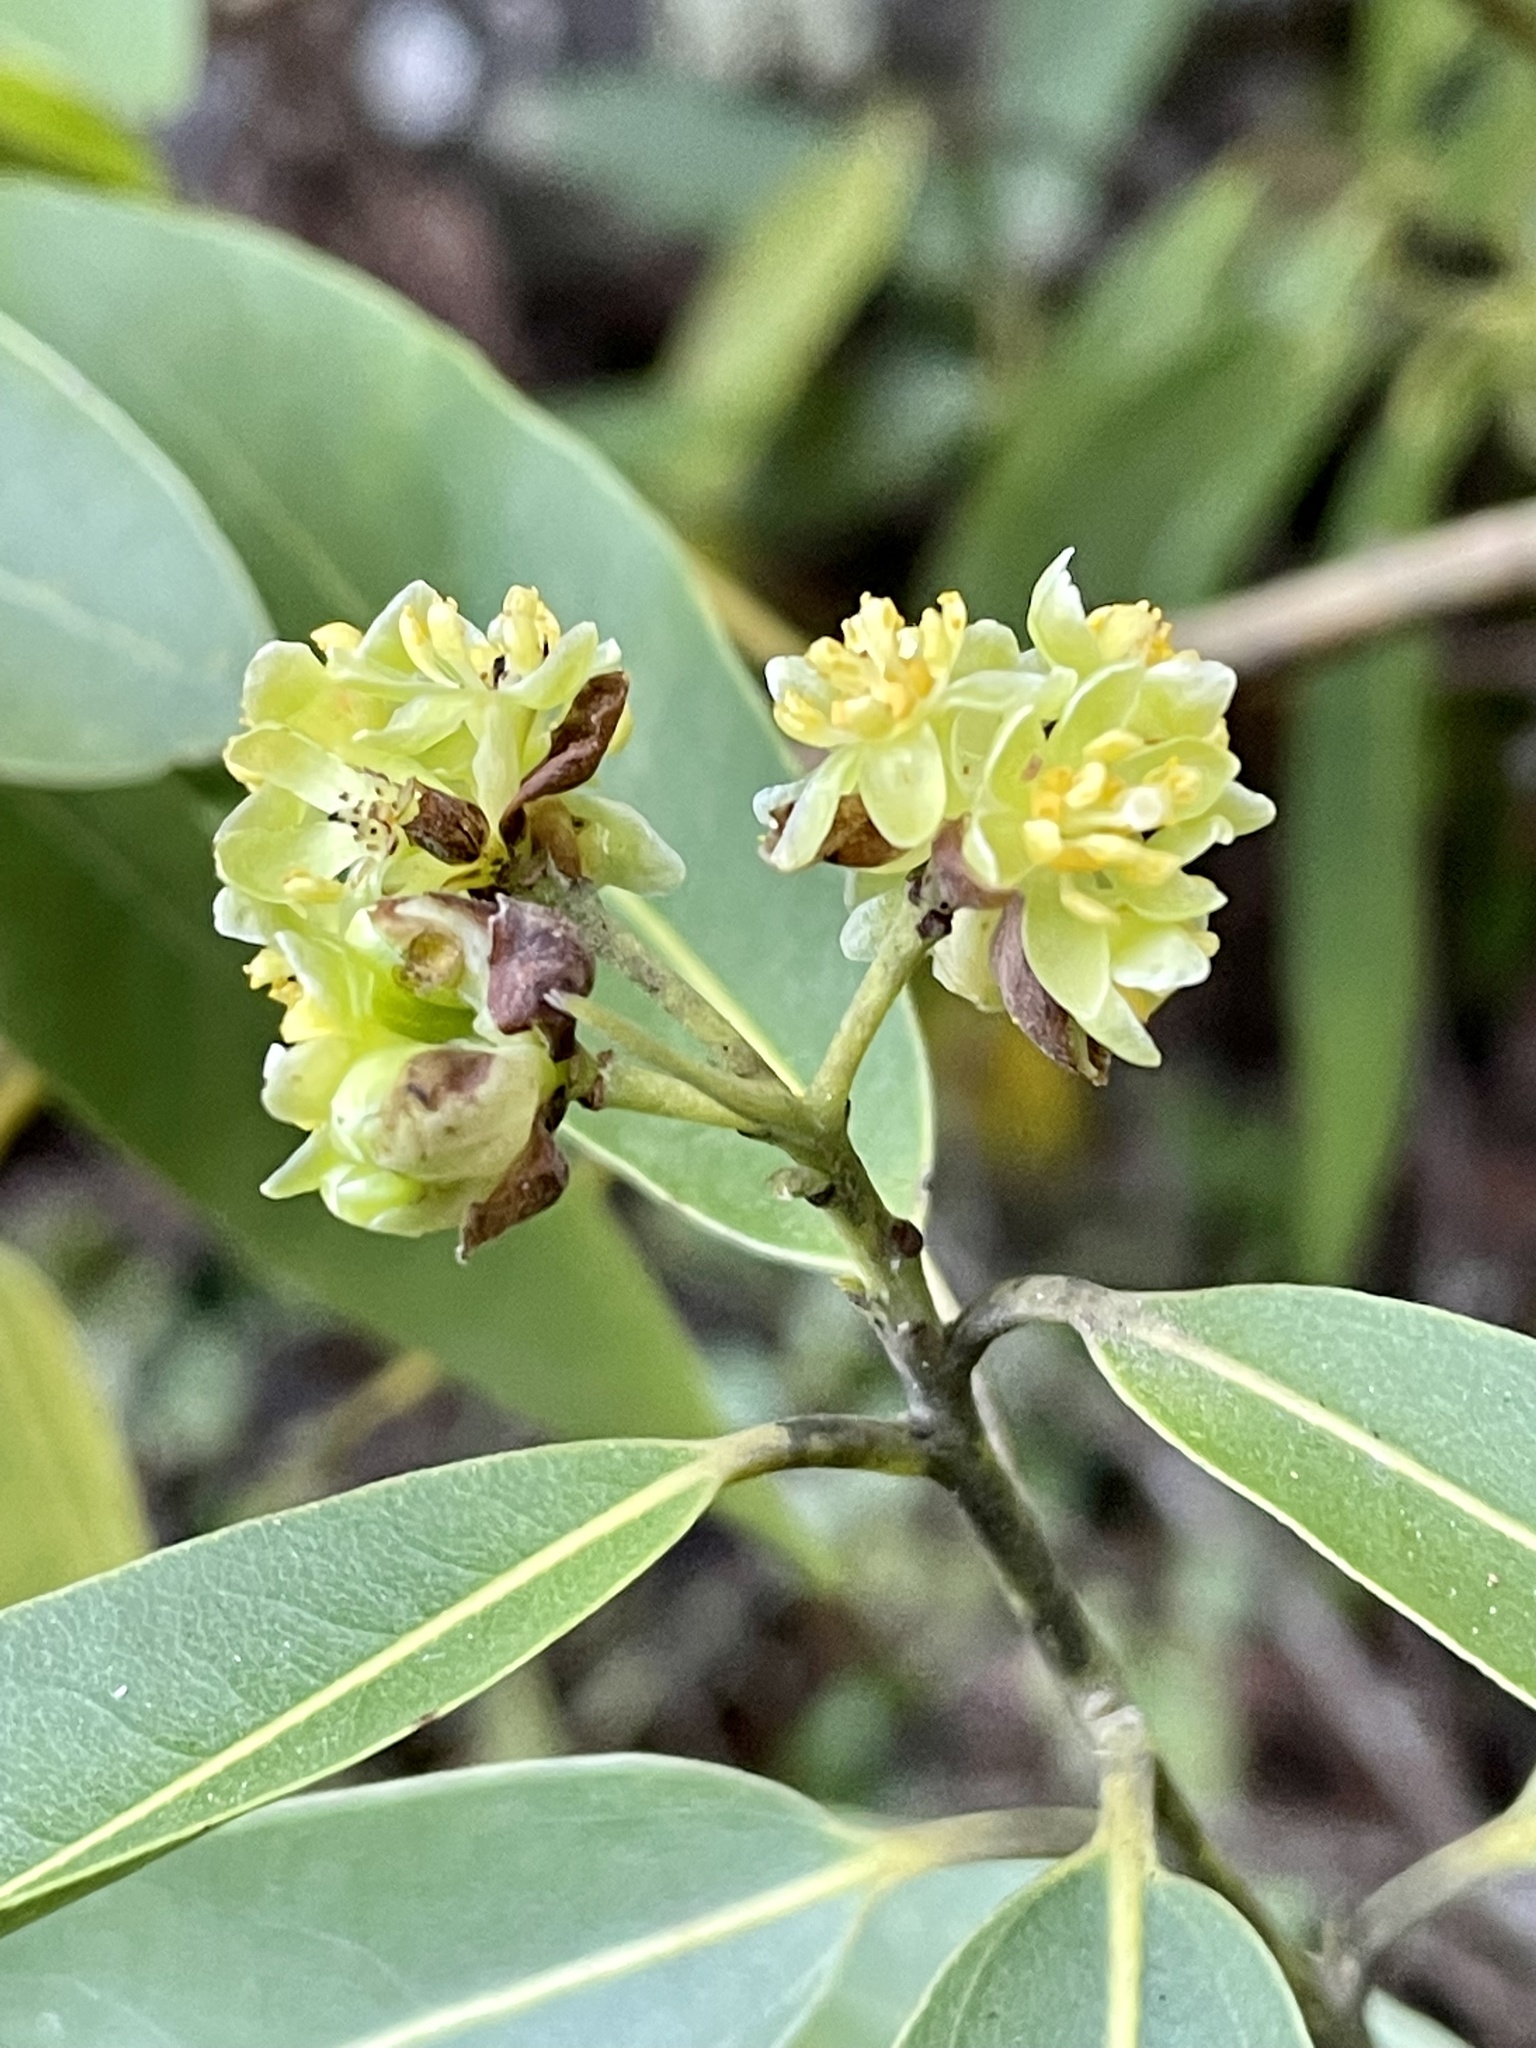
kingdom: Plantae
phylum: Tracheophyta
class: Magnoliopsida
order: Laurales
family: Lauraceae
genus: Umbellularia
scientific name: Umbellularia californica
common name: California bay
